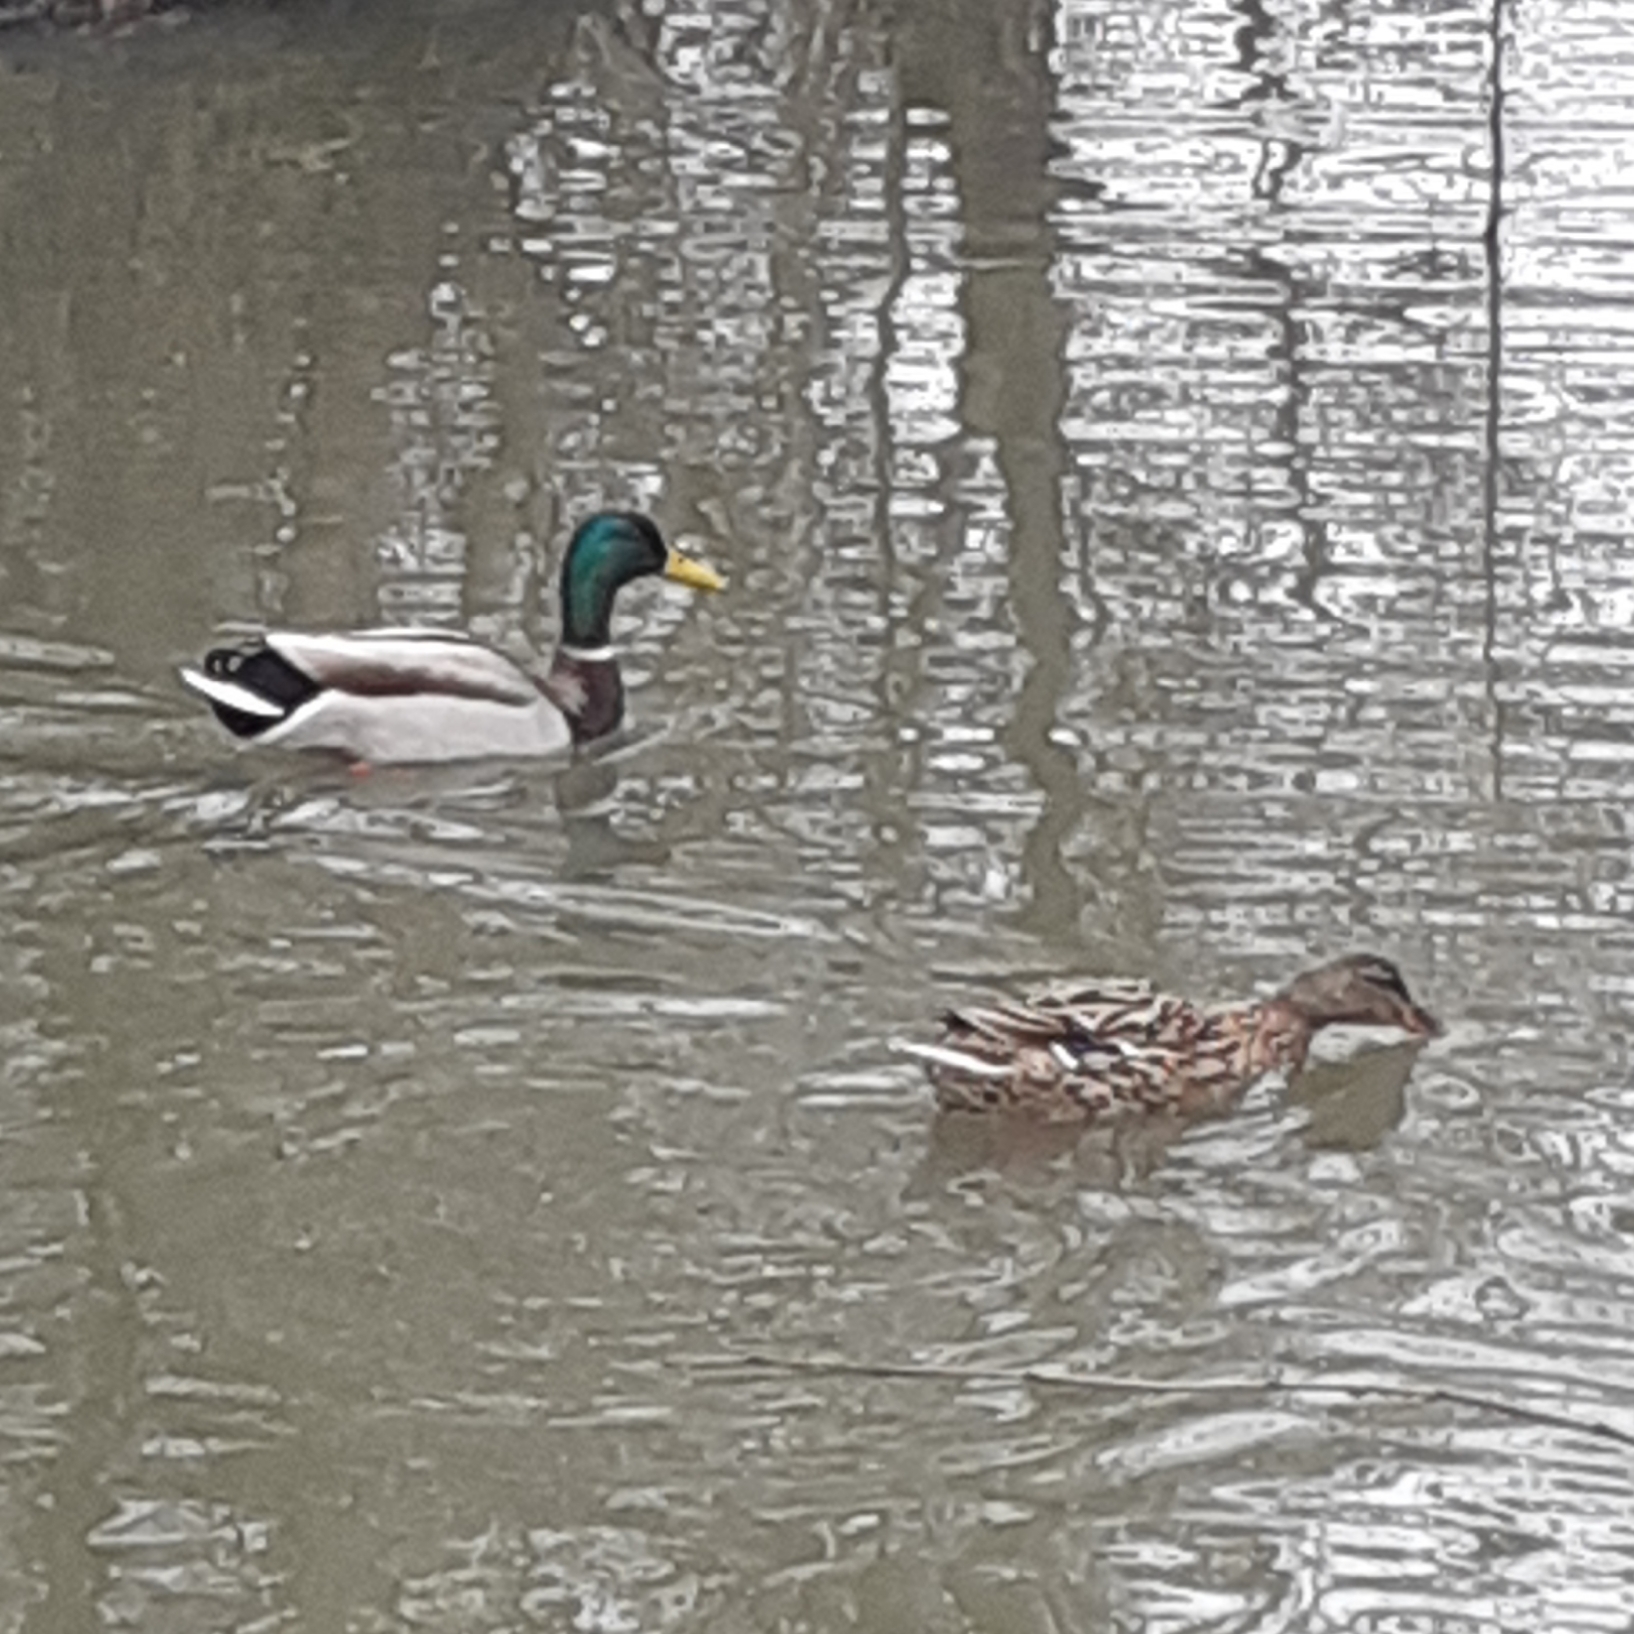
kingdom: Animalia
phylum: Chordata
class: Aves
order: Anseriformes
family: Anatidae
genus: Anas
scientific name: Anas platyrhynchos
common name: Mallard
